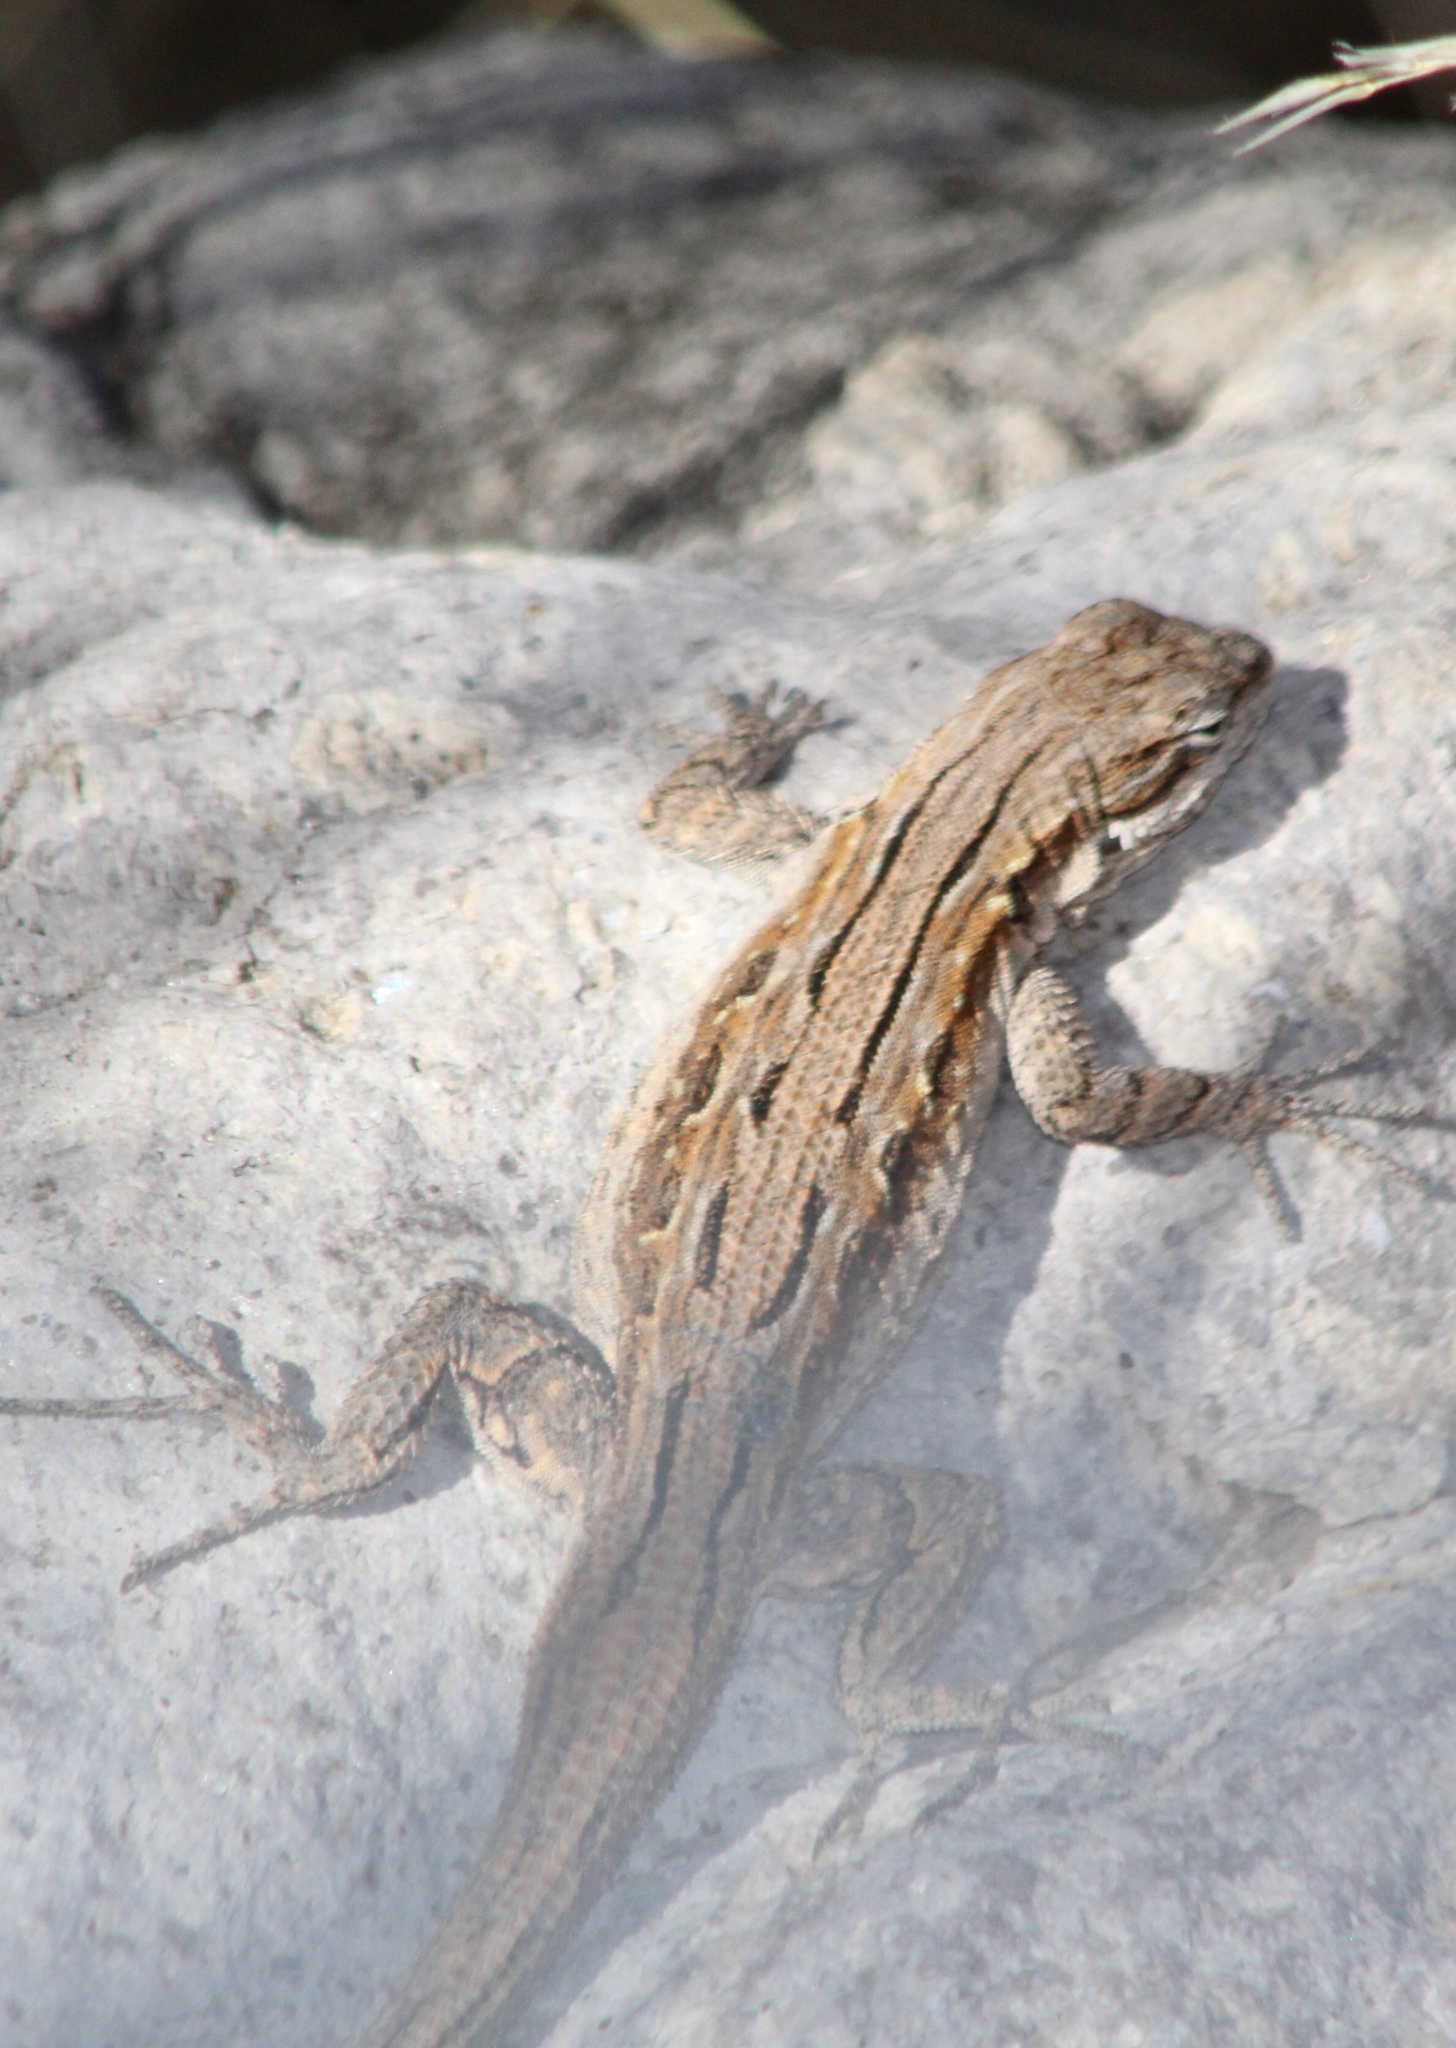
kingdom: Animalia
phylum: Chordata
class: Squamata
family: Phrynosomatidae
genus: Urosaurus
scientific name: Urosaurus ornatus
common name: Ornate tree lizard
